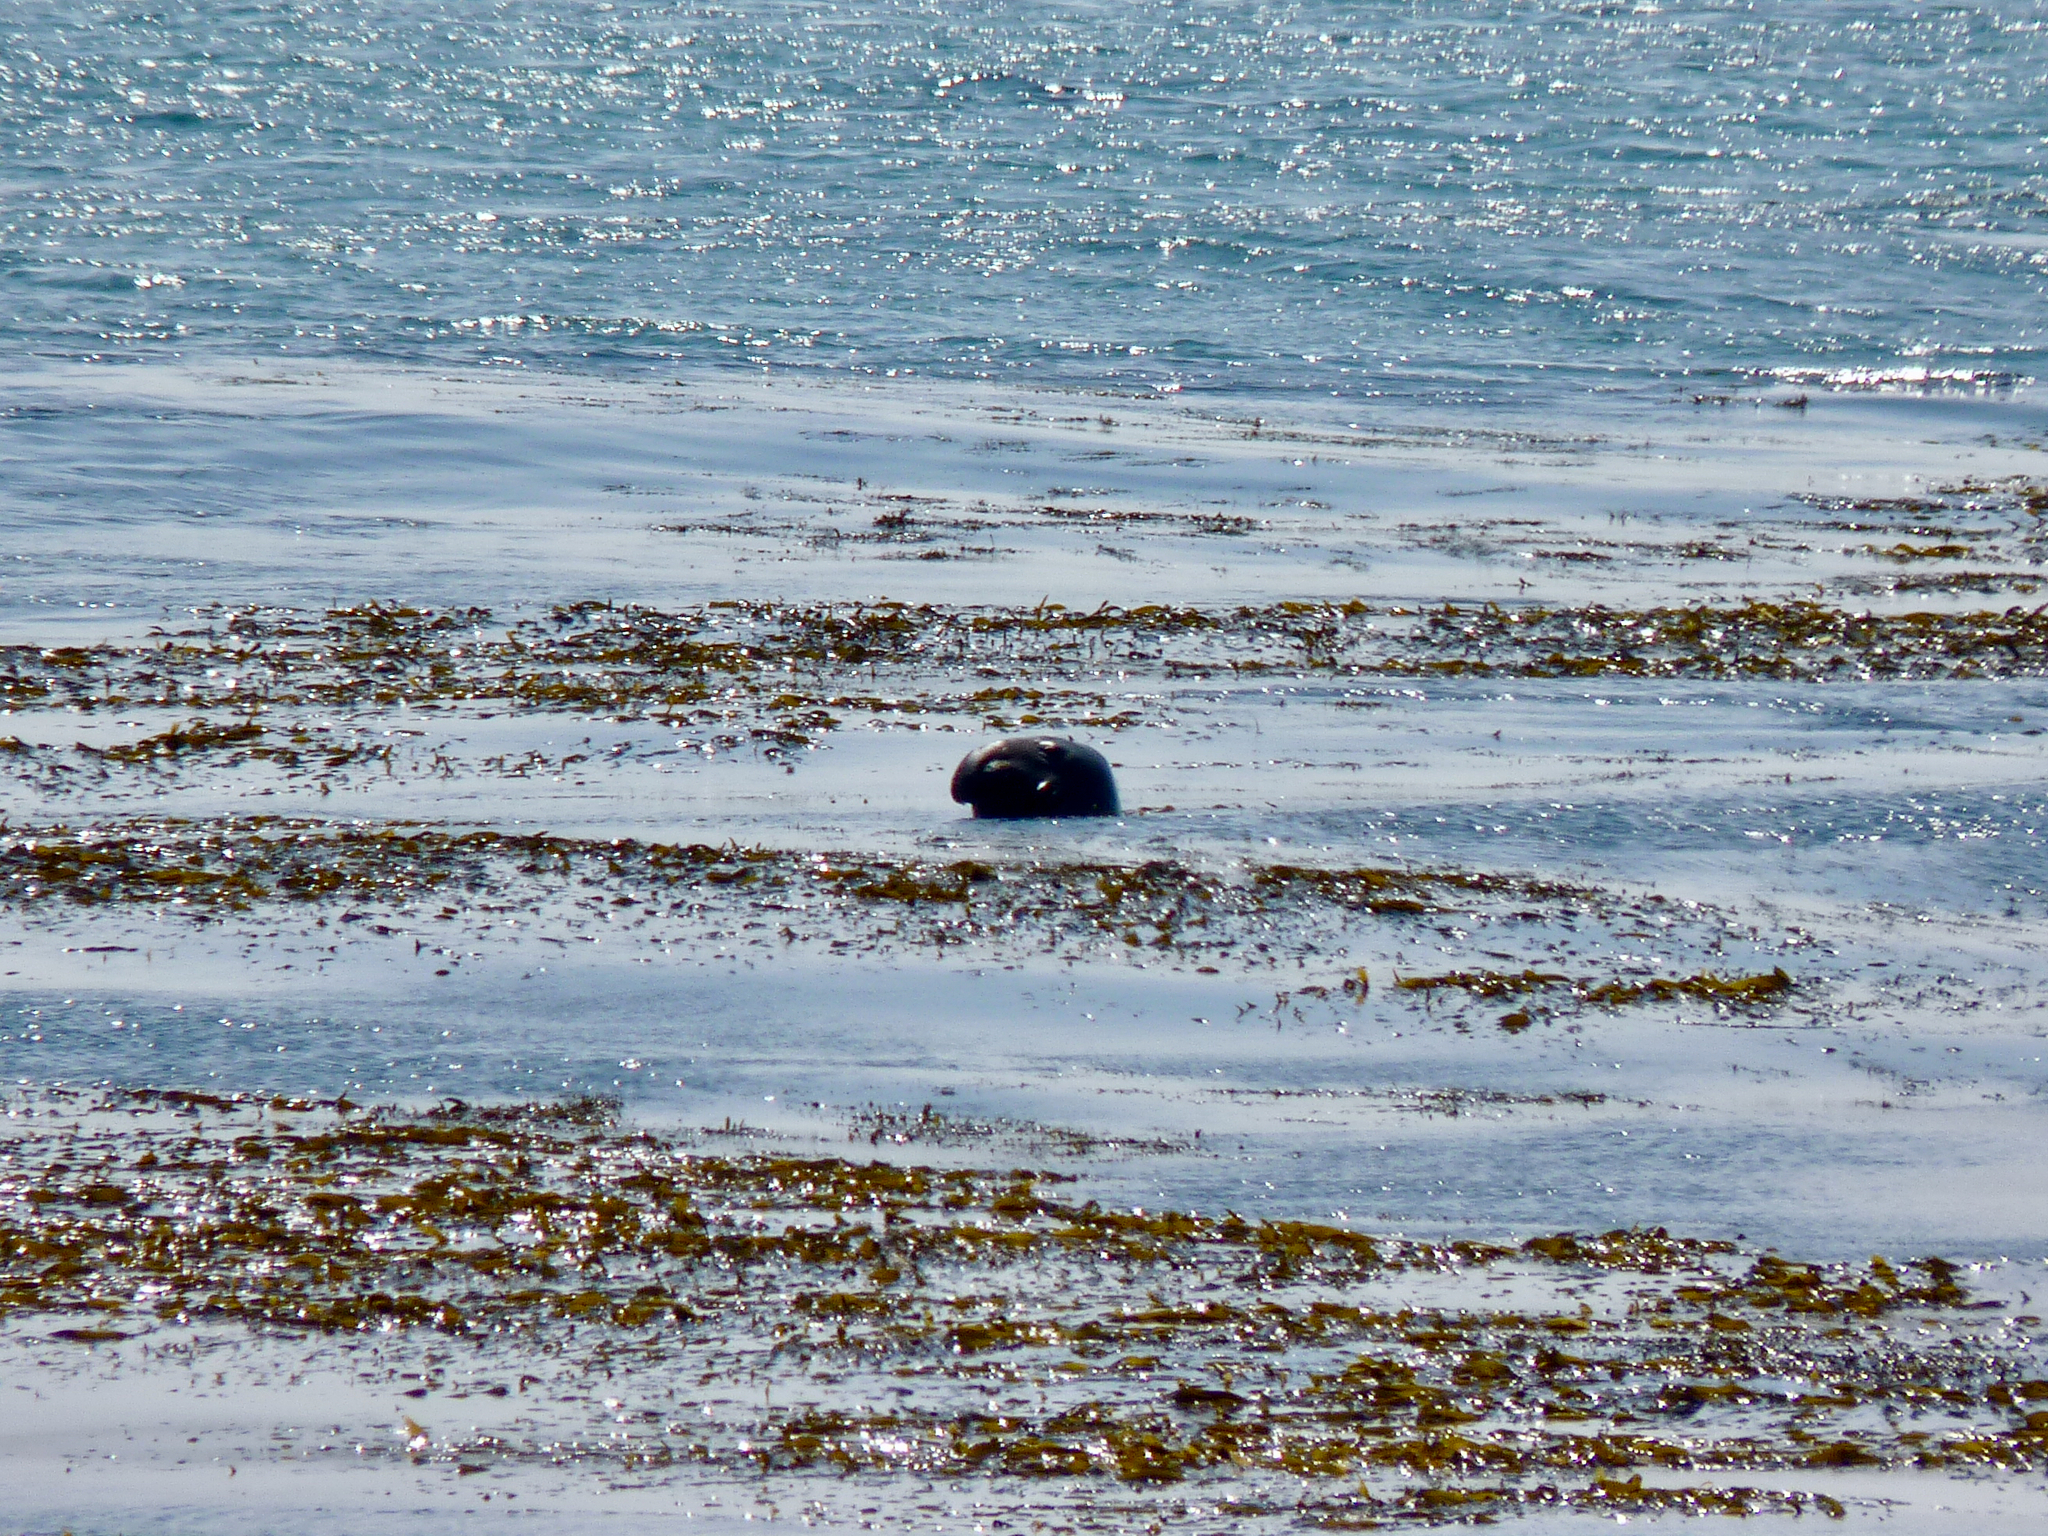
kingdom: Animalia
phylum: Chordata
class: Mammalia
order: Carnivora
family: Phocidae
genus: Mirounga
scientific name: Mirounga angustirostris
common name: Northern elephant seal
